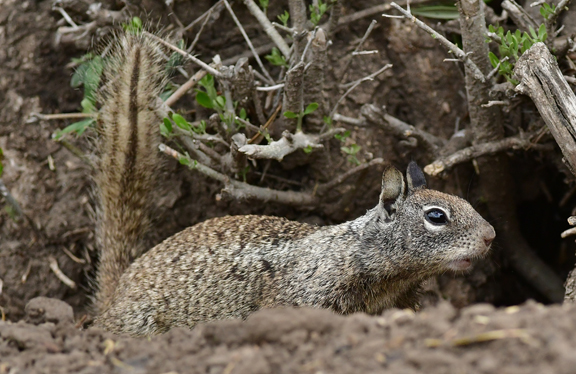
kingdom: Animalia
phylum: Chordata
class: Mammalia
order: Rodentia
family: Sciuridae
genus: Otospermophilus
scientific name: Otospermophilus beecheyi
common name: California ground squirrel
